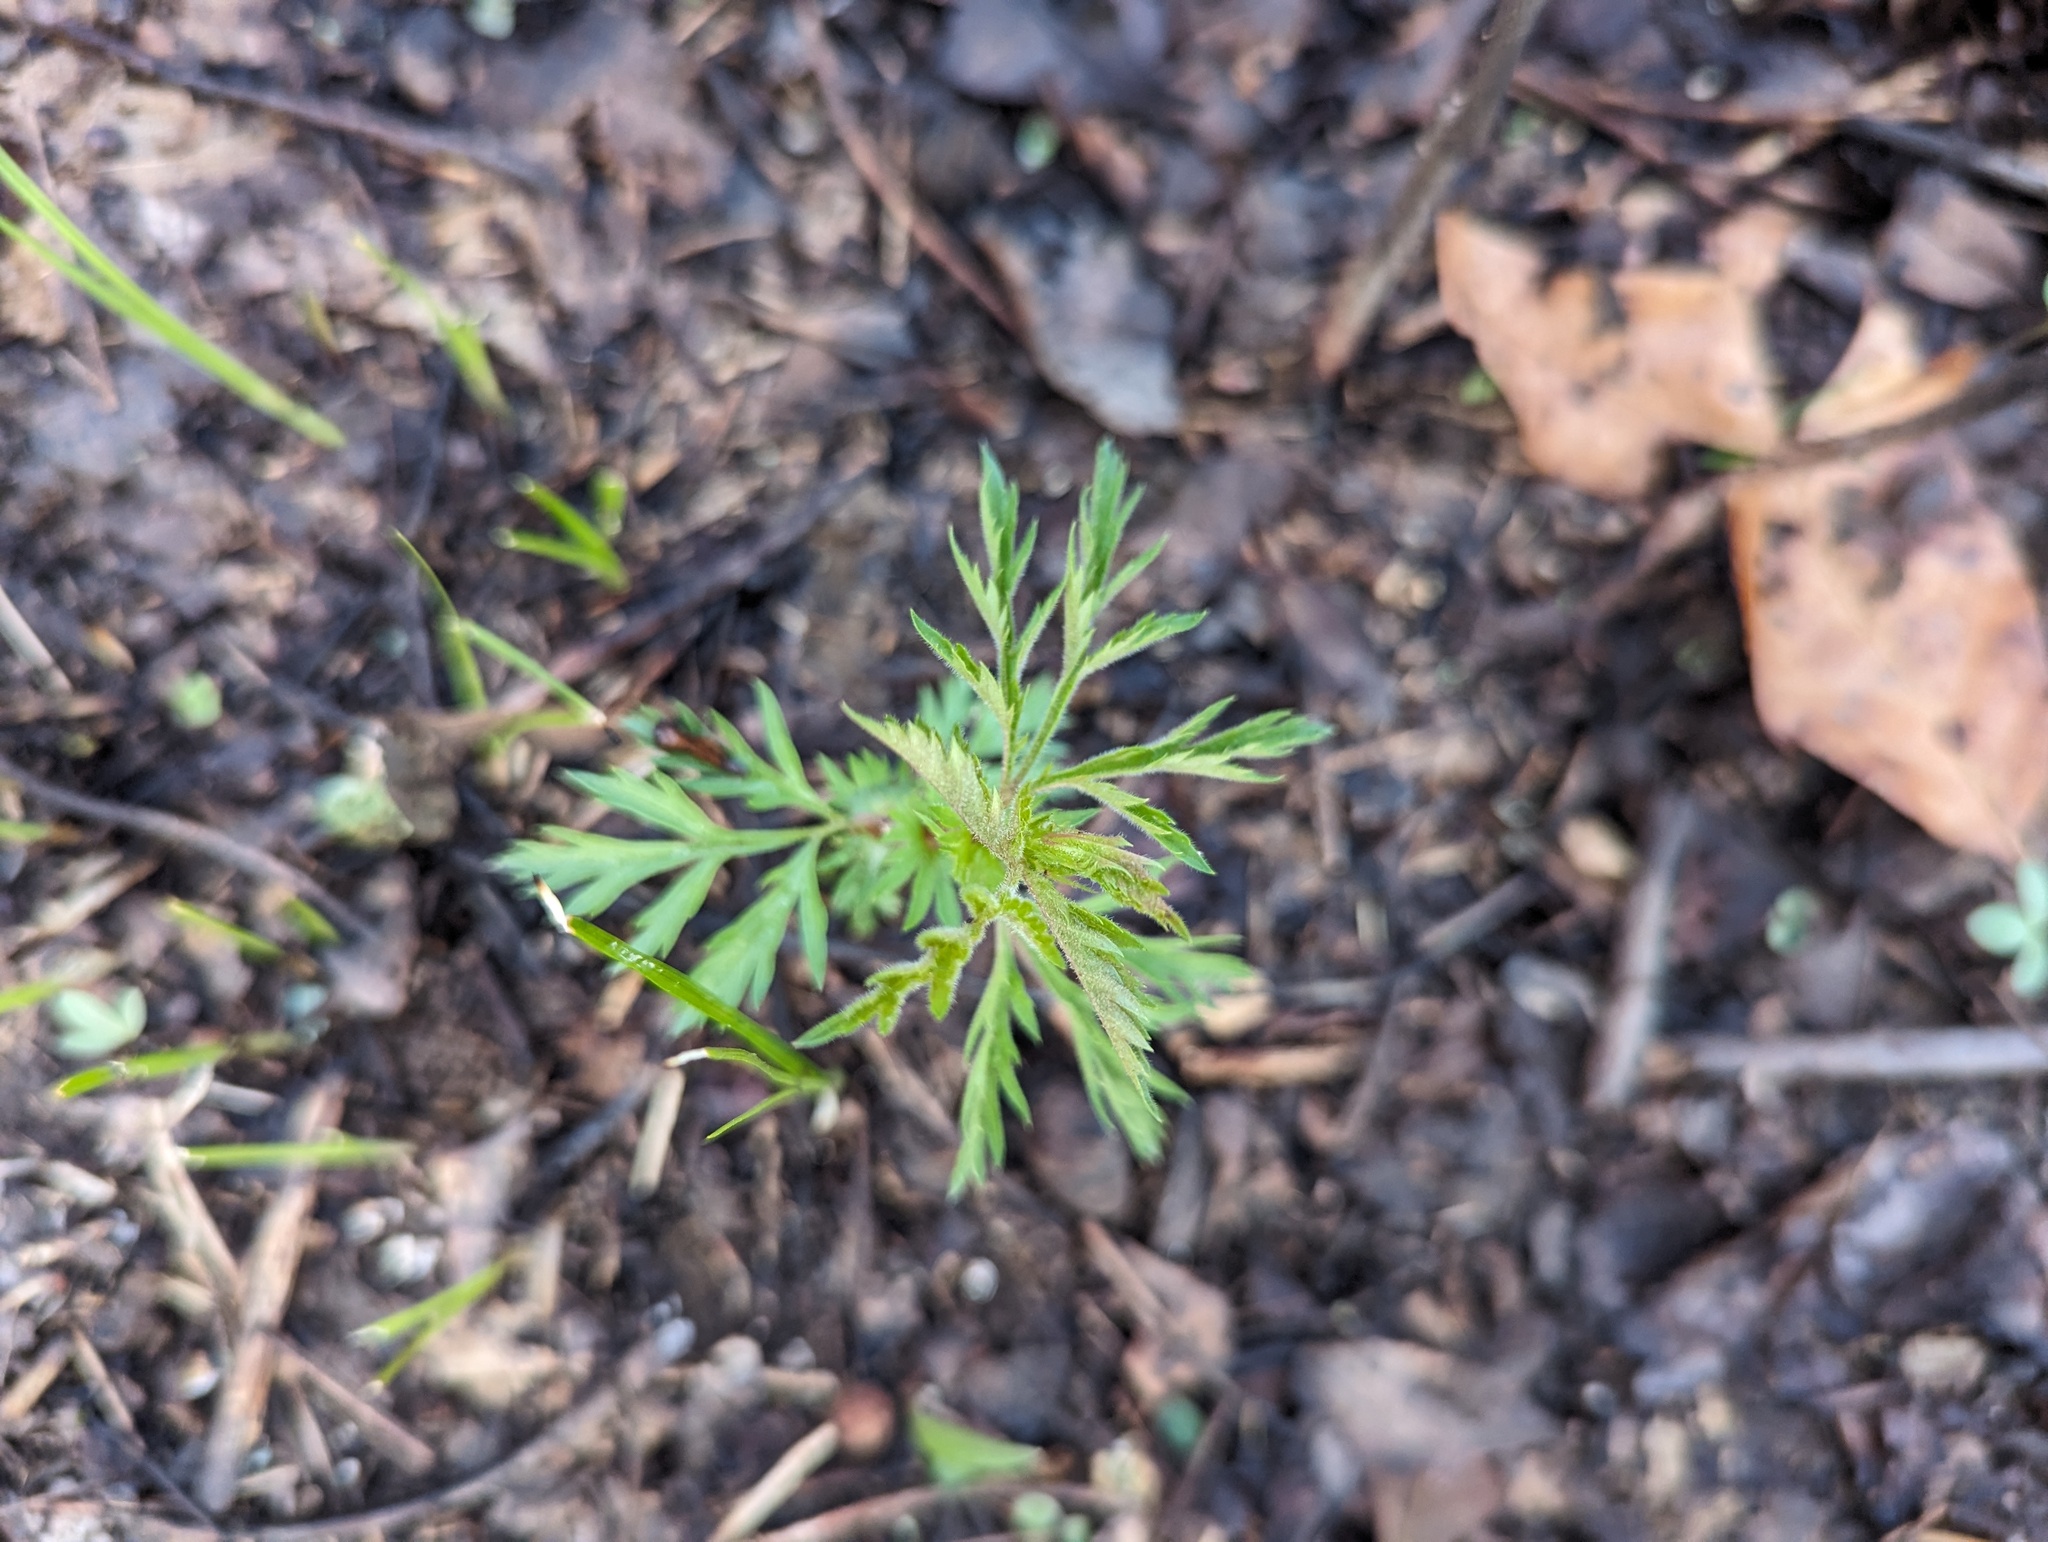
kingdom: Plantae
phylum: Tracheophyta
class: Magnoliopsida
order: Rosales
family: Rosaceae
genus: Gillenia
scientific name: Gillenia stipulata
